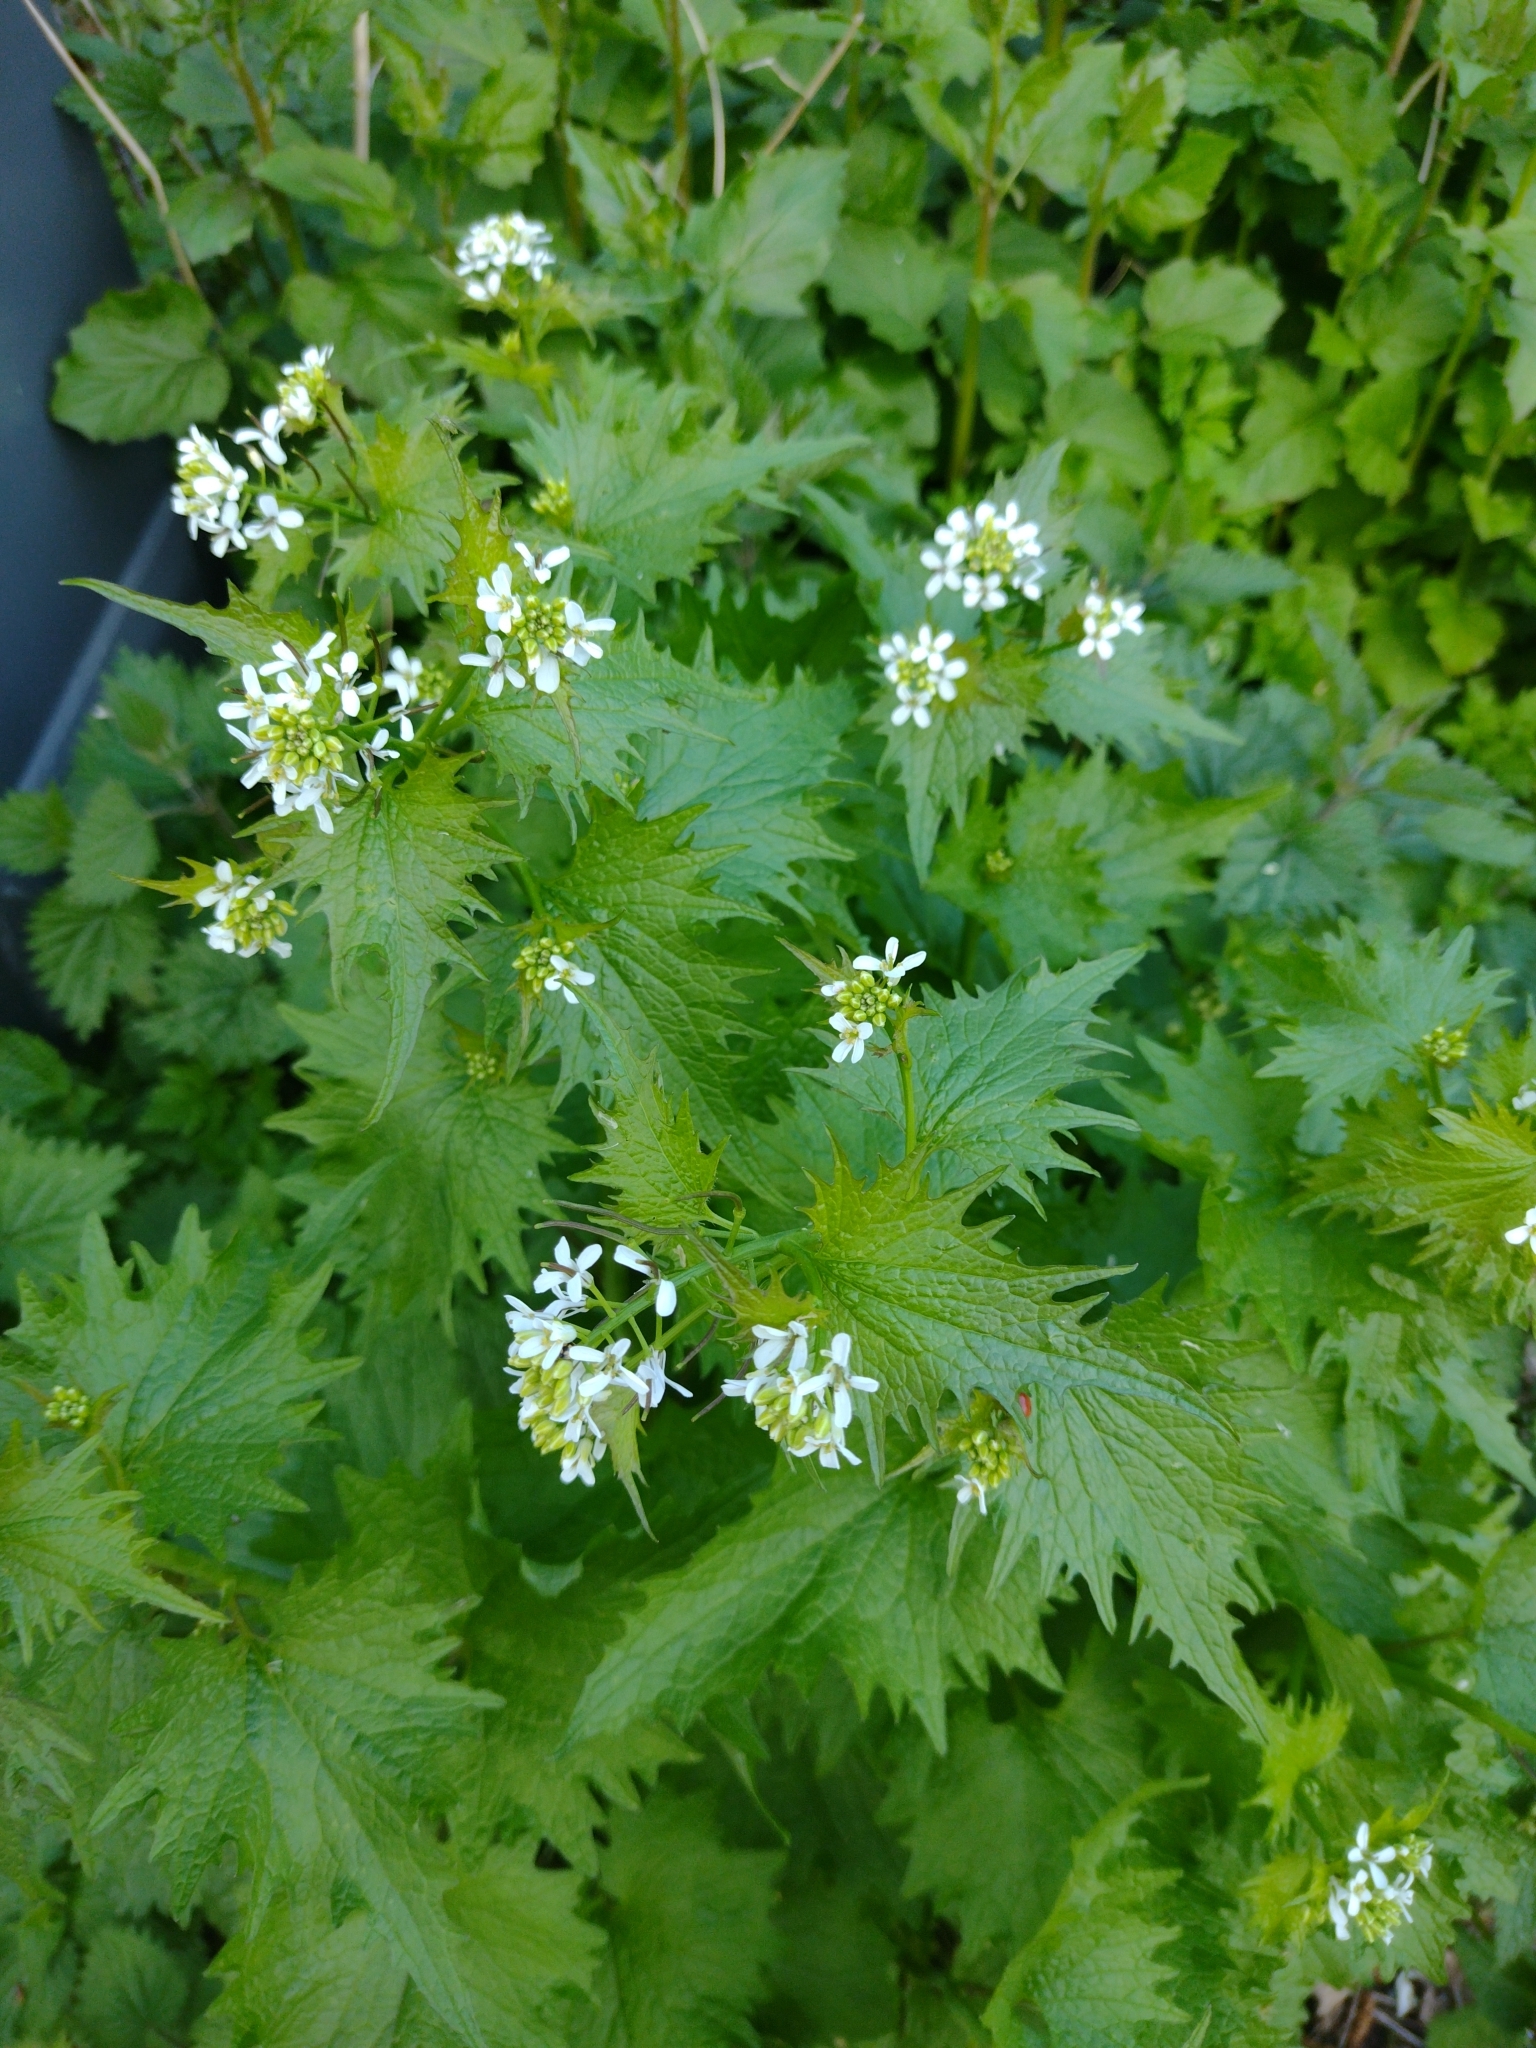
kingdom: Plantae
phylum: Tracheophyta
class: Magnoliopsida
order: Brassicales
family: Brassicaceae
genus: Alliaria
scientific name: Alliaria petiolata
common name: Garlic mustard
